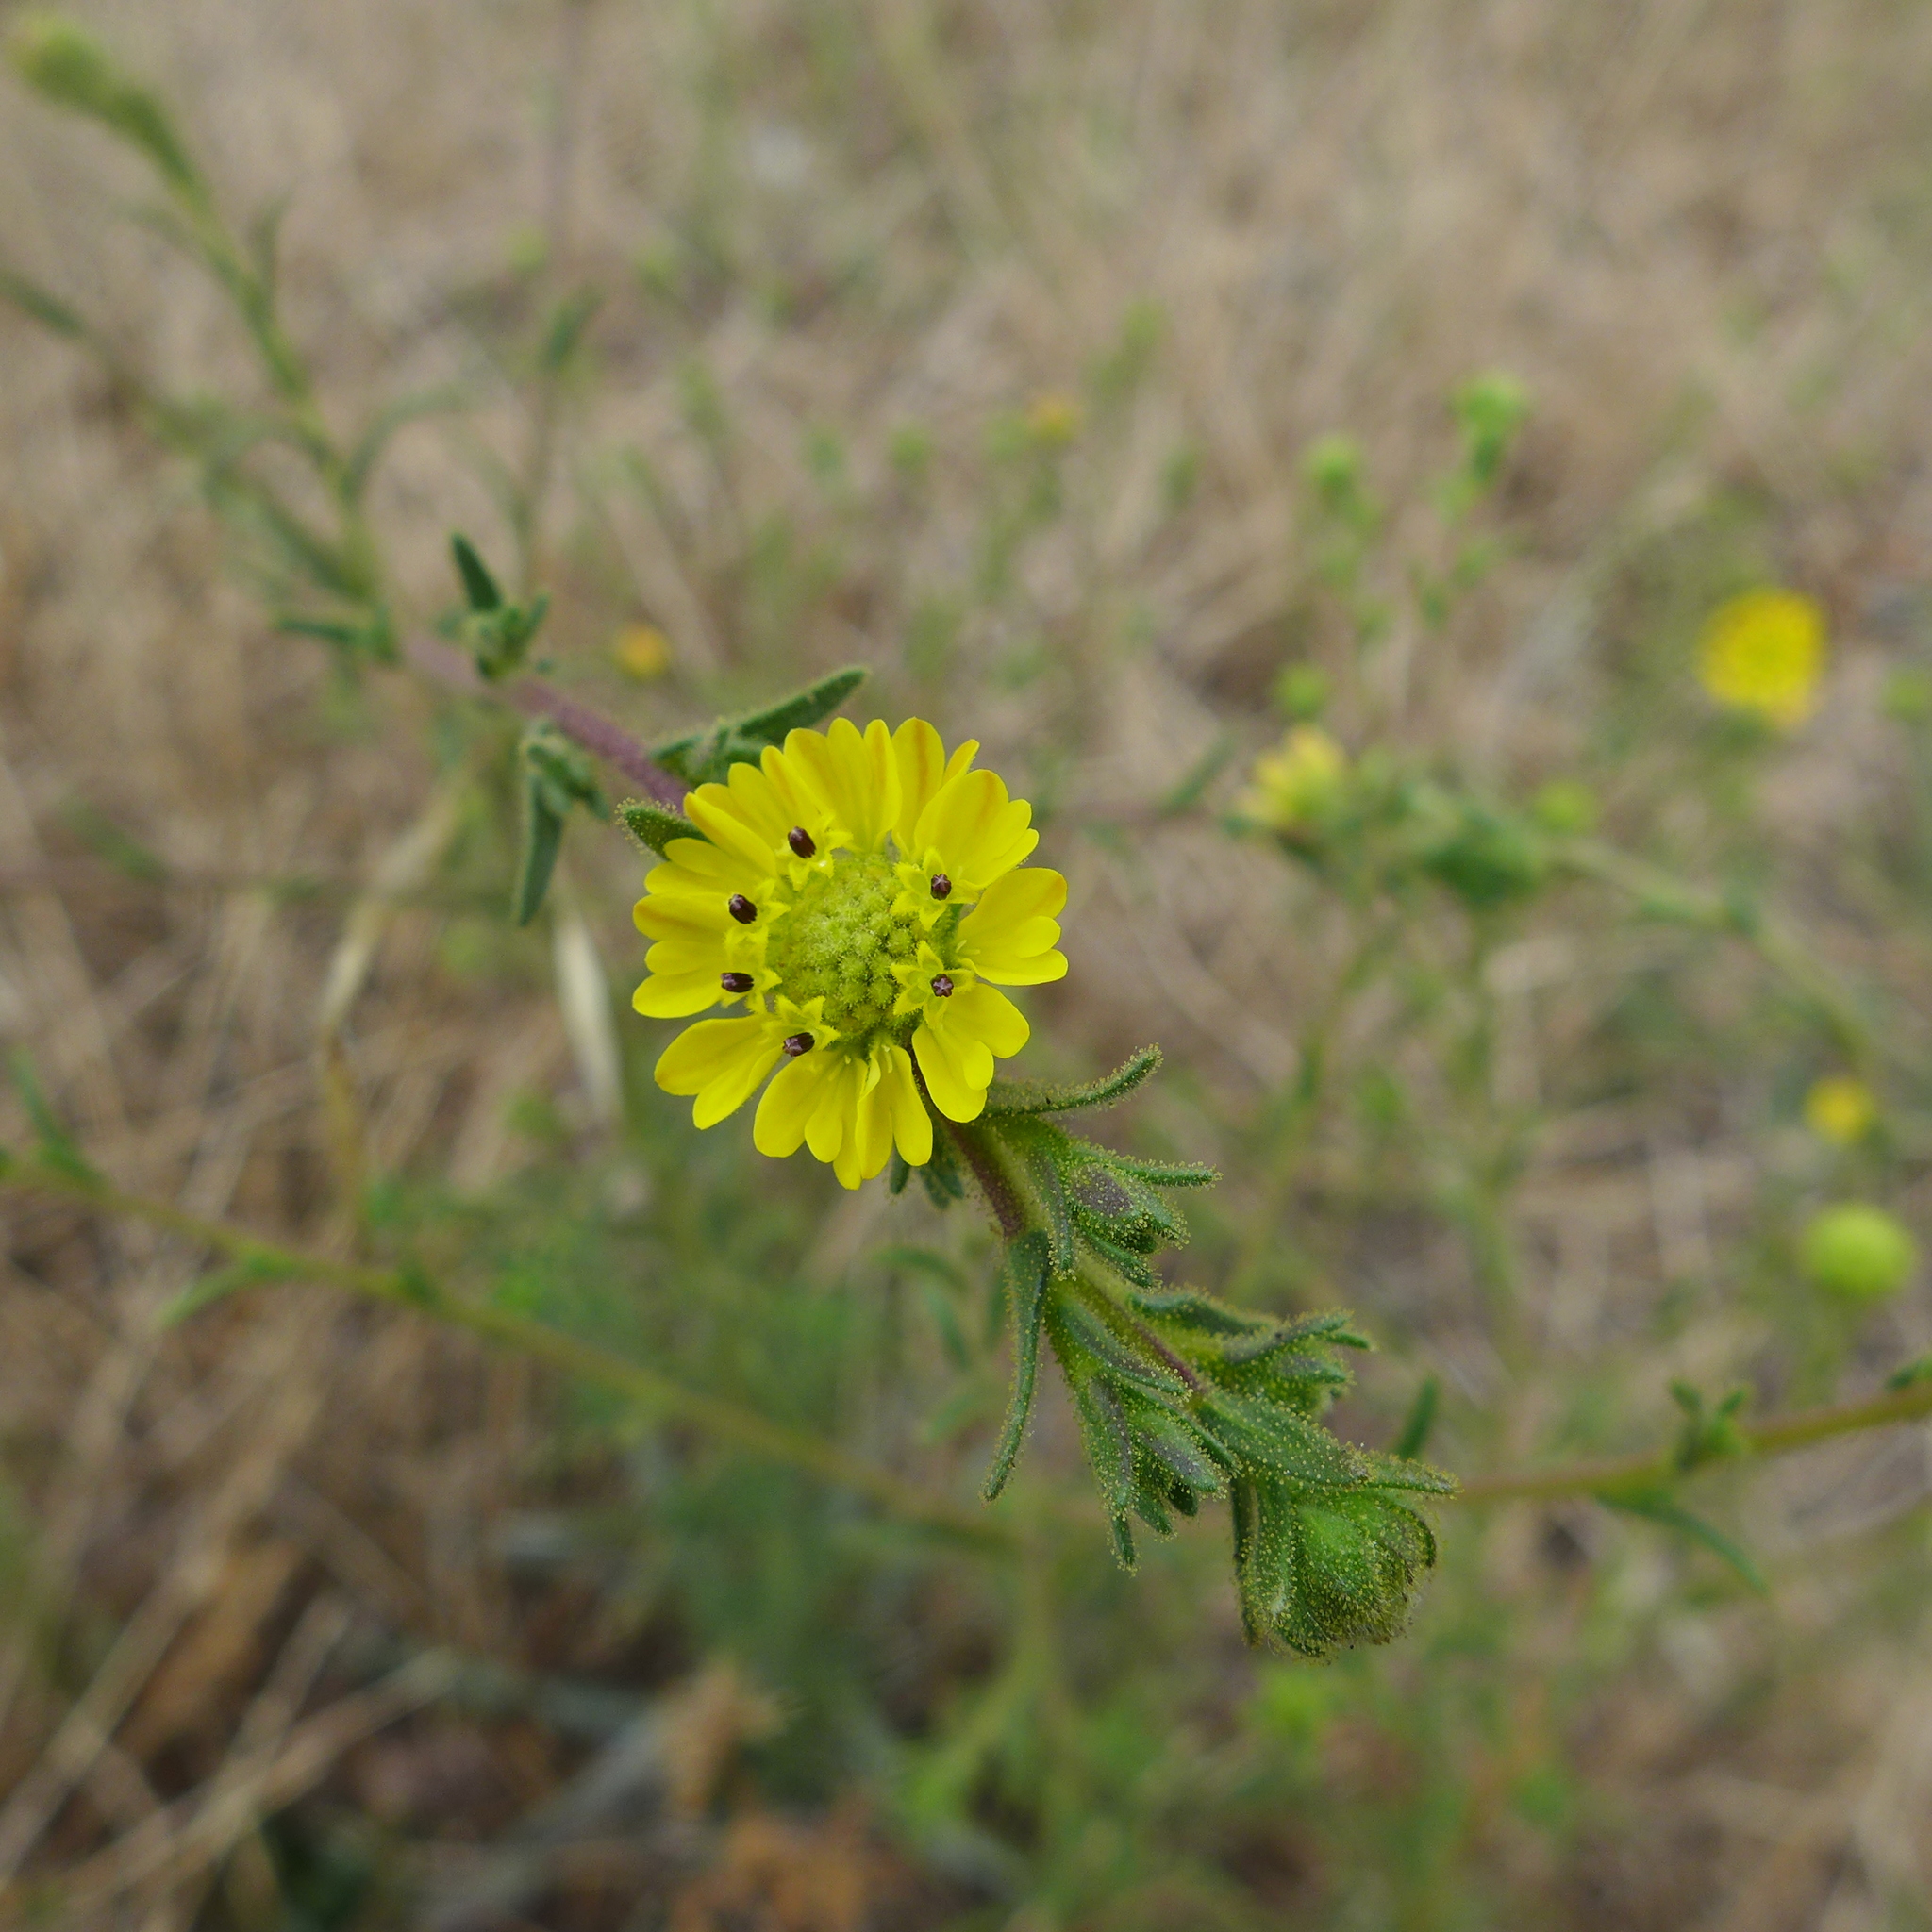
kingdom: Plantae
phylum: Tracheophyta
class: Magnoliopsida
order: Asterales
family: Asteraceae
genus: Centromadia
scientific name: Centromadia fitchii
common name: Fitch's spikeweed
